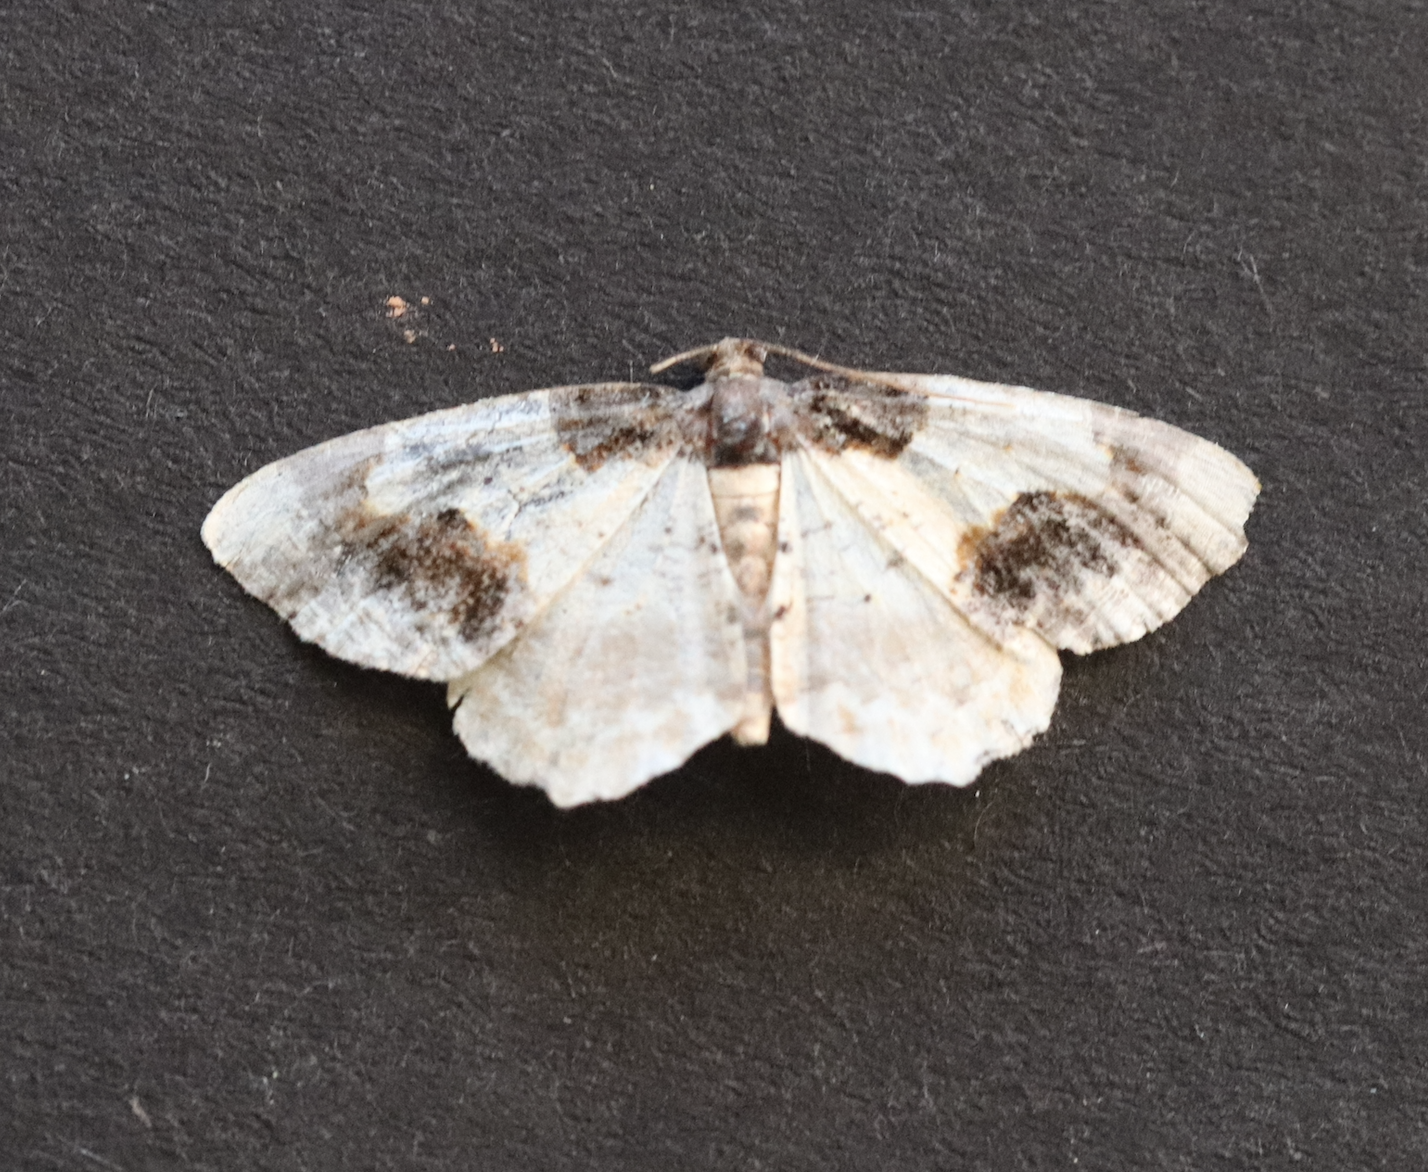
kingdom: Animalia
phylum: Arthropoda
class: Insecta
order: Lepidoptera
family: Geometridae
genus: Ligdia
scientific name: Ligdia adustata
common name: Scorched carpet
